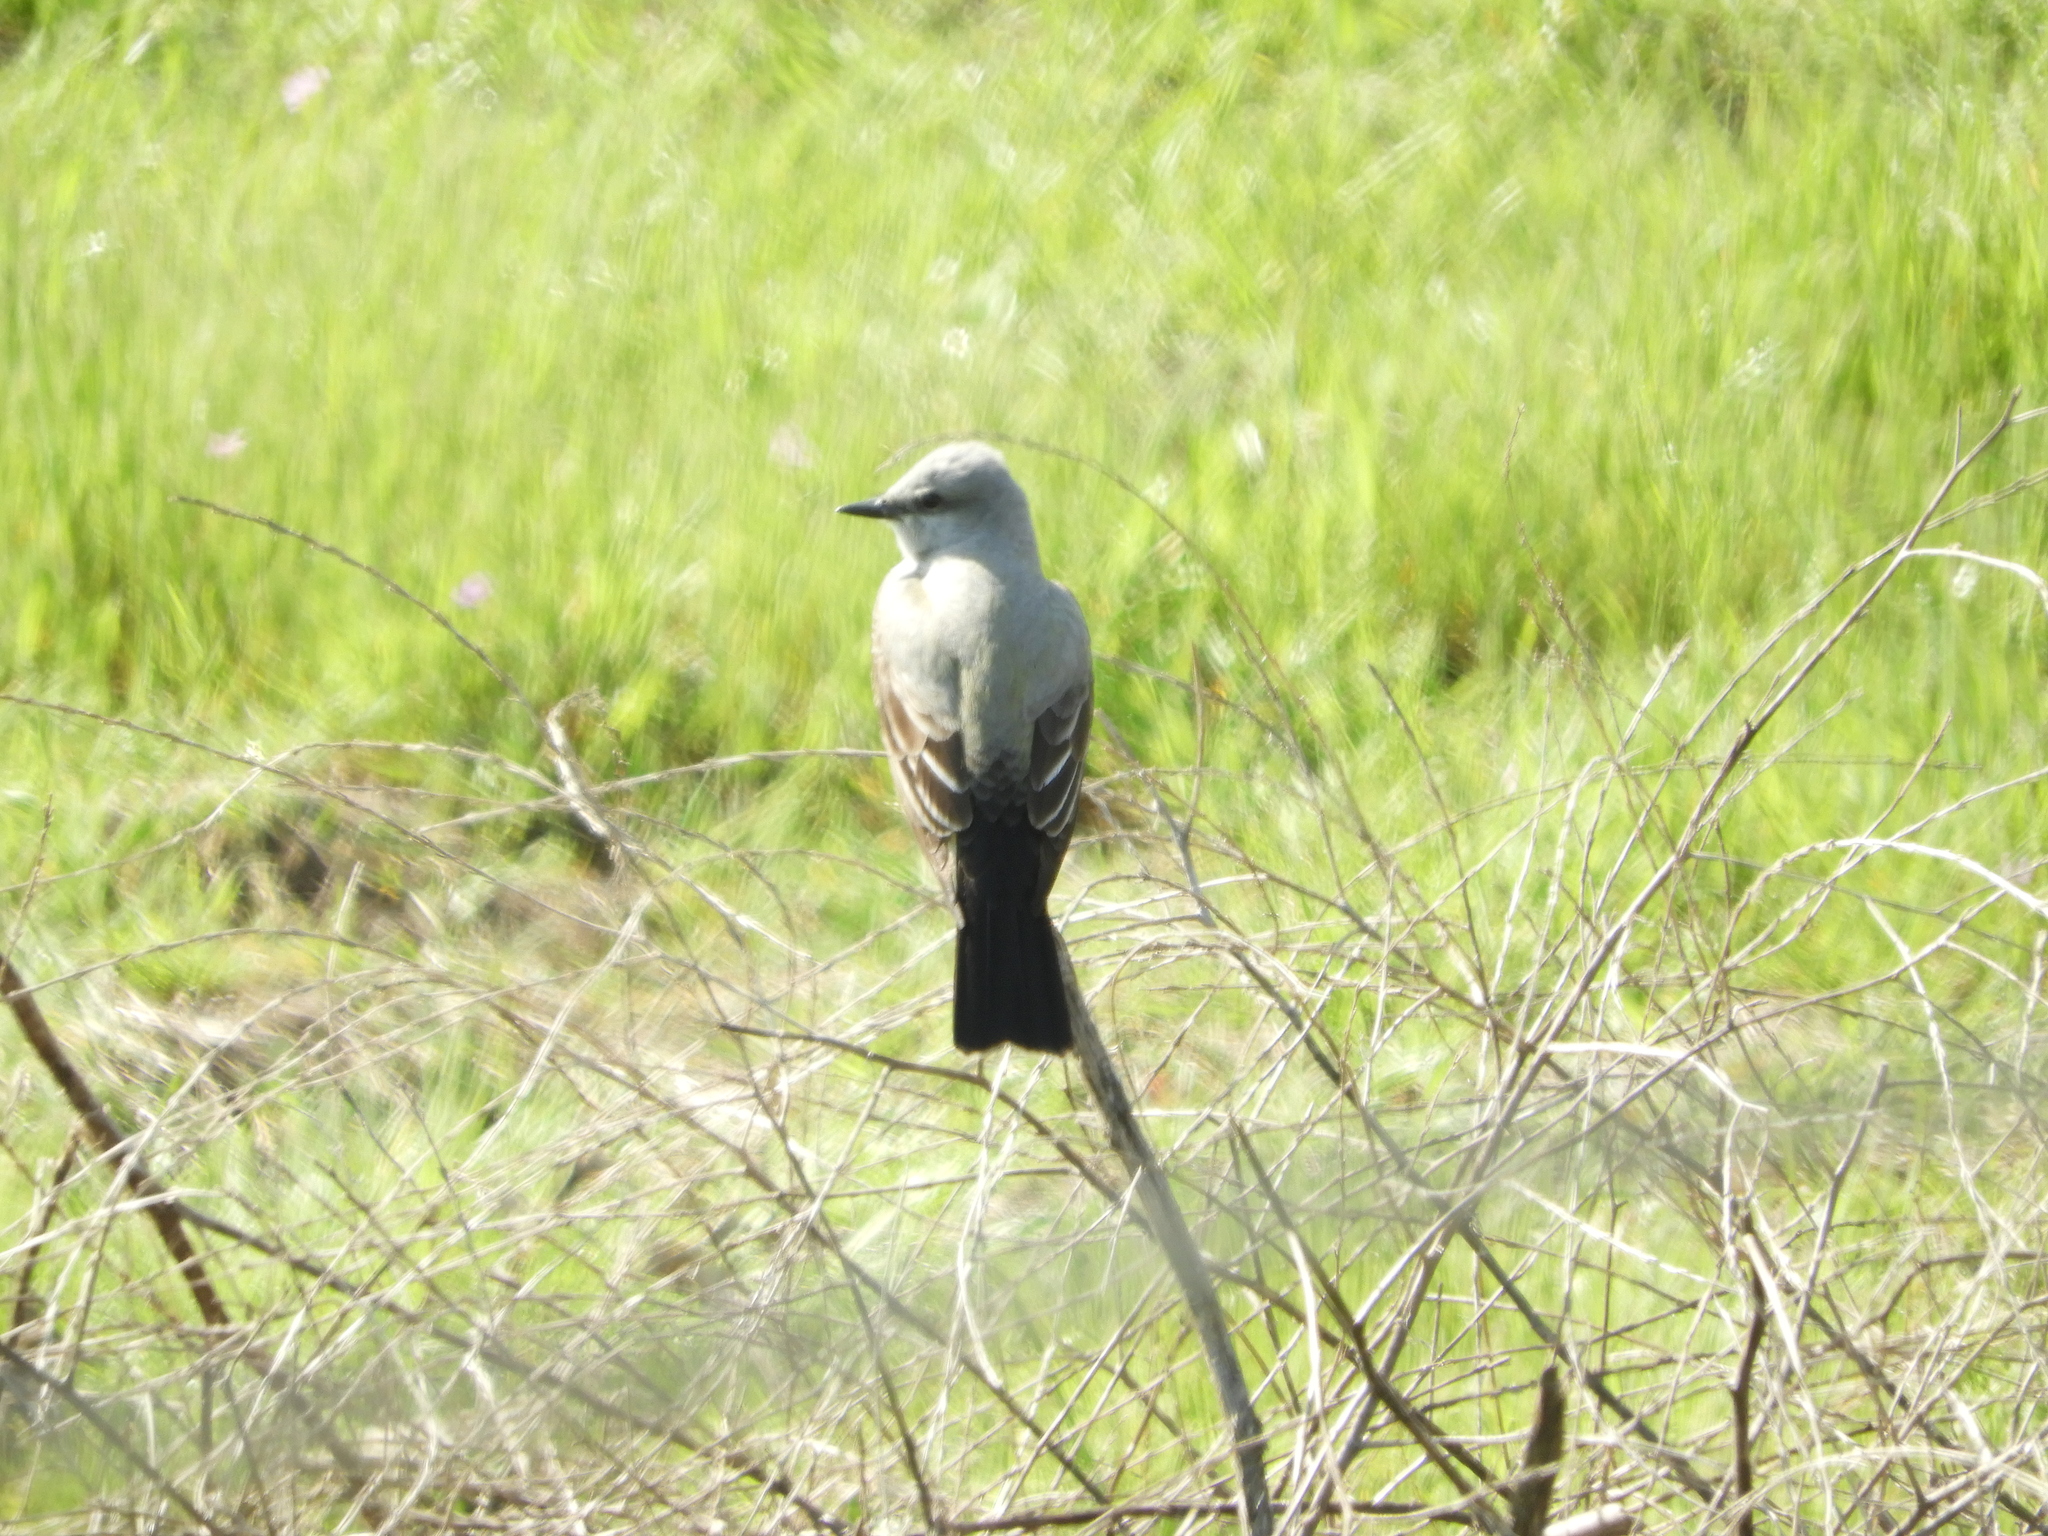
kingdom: Animalia
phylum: Chordata
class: Aves
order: Passeriformes
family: Tyrannidae
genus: Tyrannus
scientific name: Tyrannus verticalis
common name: Western kingbird
